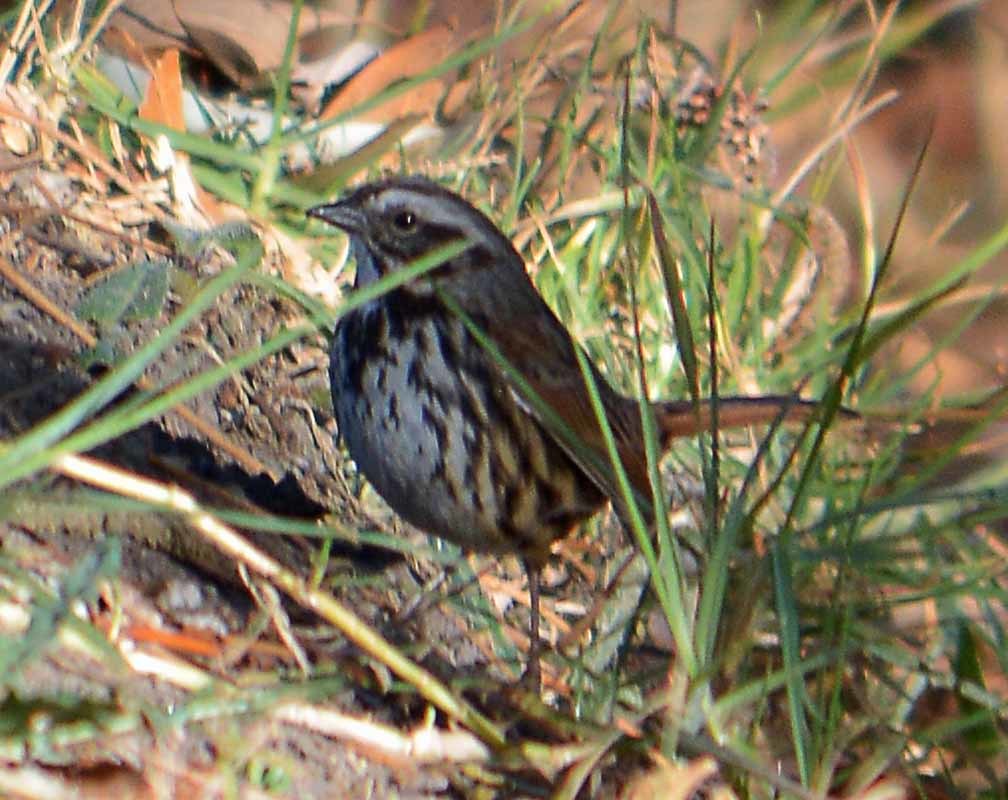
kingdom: Animalia
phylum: Chordata
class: Aves
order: Passeriformes
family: Passerellidae
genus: Melospiza
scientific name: Melospiza melodia
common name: Song sparrow
